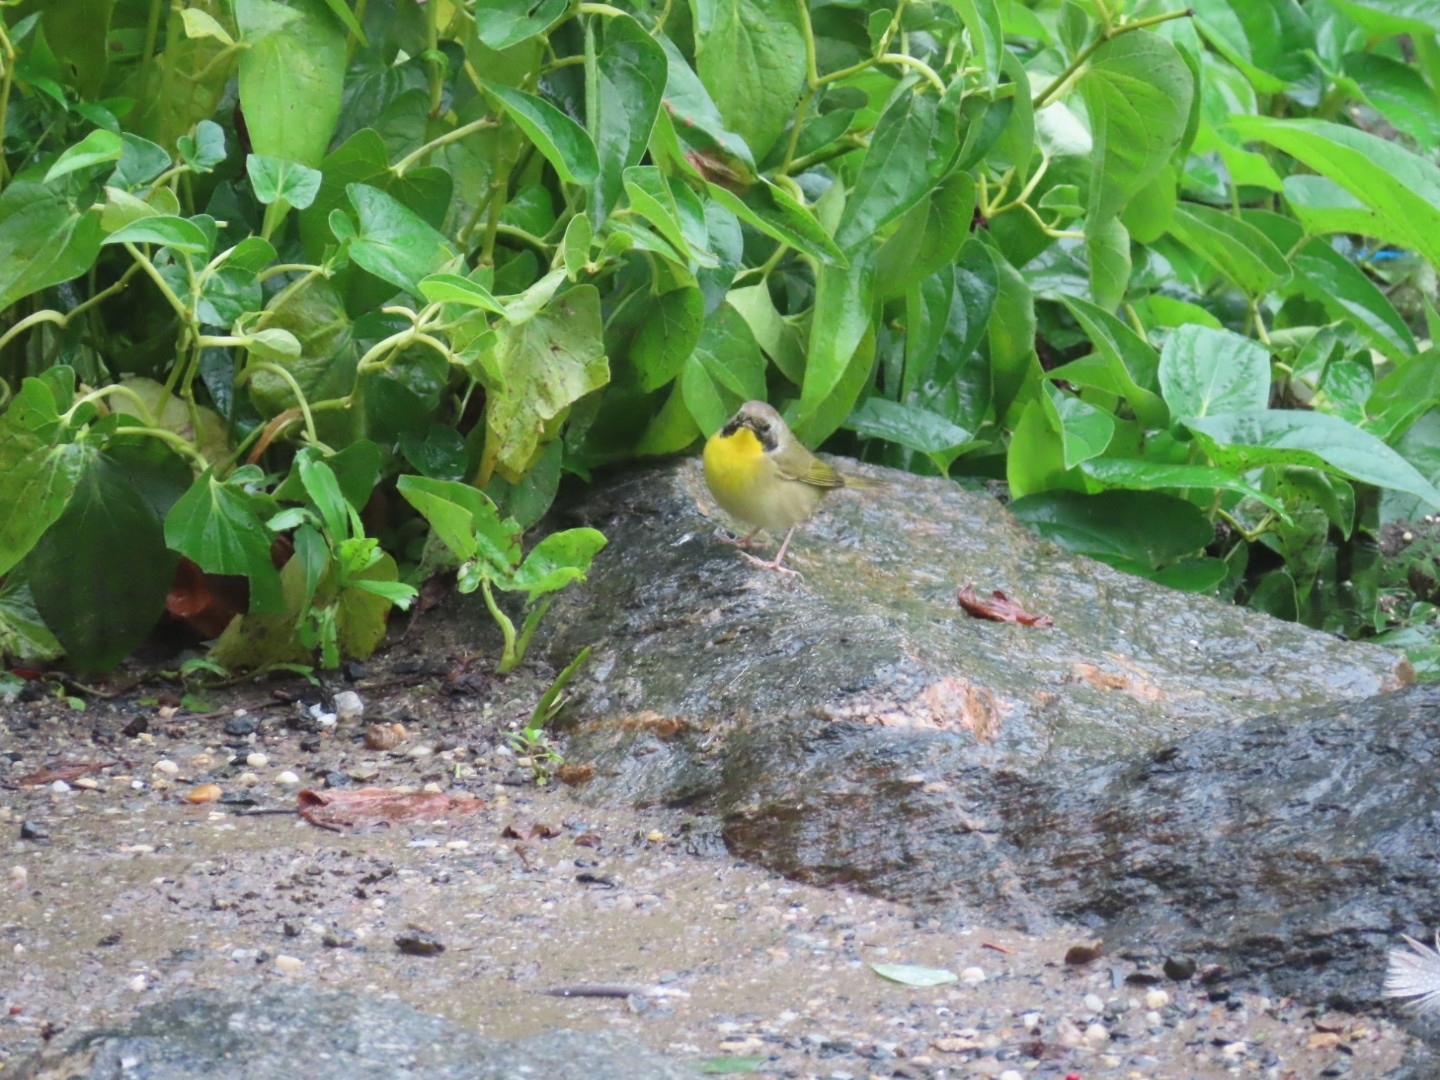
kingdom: Animalia
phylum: Chordata
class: Aves
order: Passeriformes
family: Parulidae
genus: Geothlypis
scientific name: Geothlypis trichas
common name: Common yellowthroat
